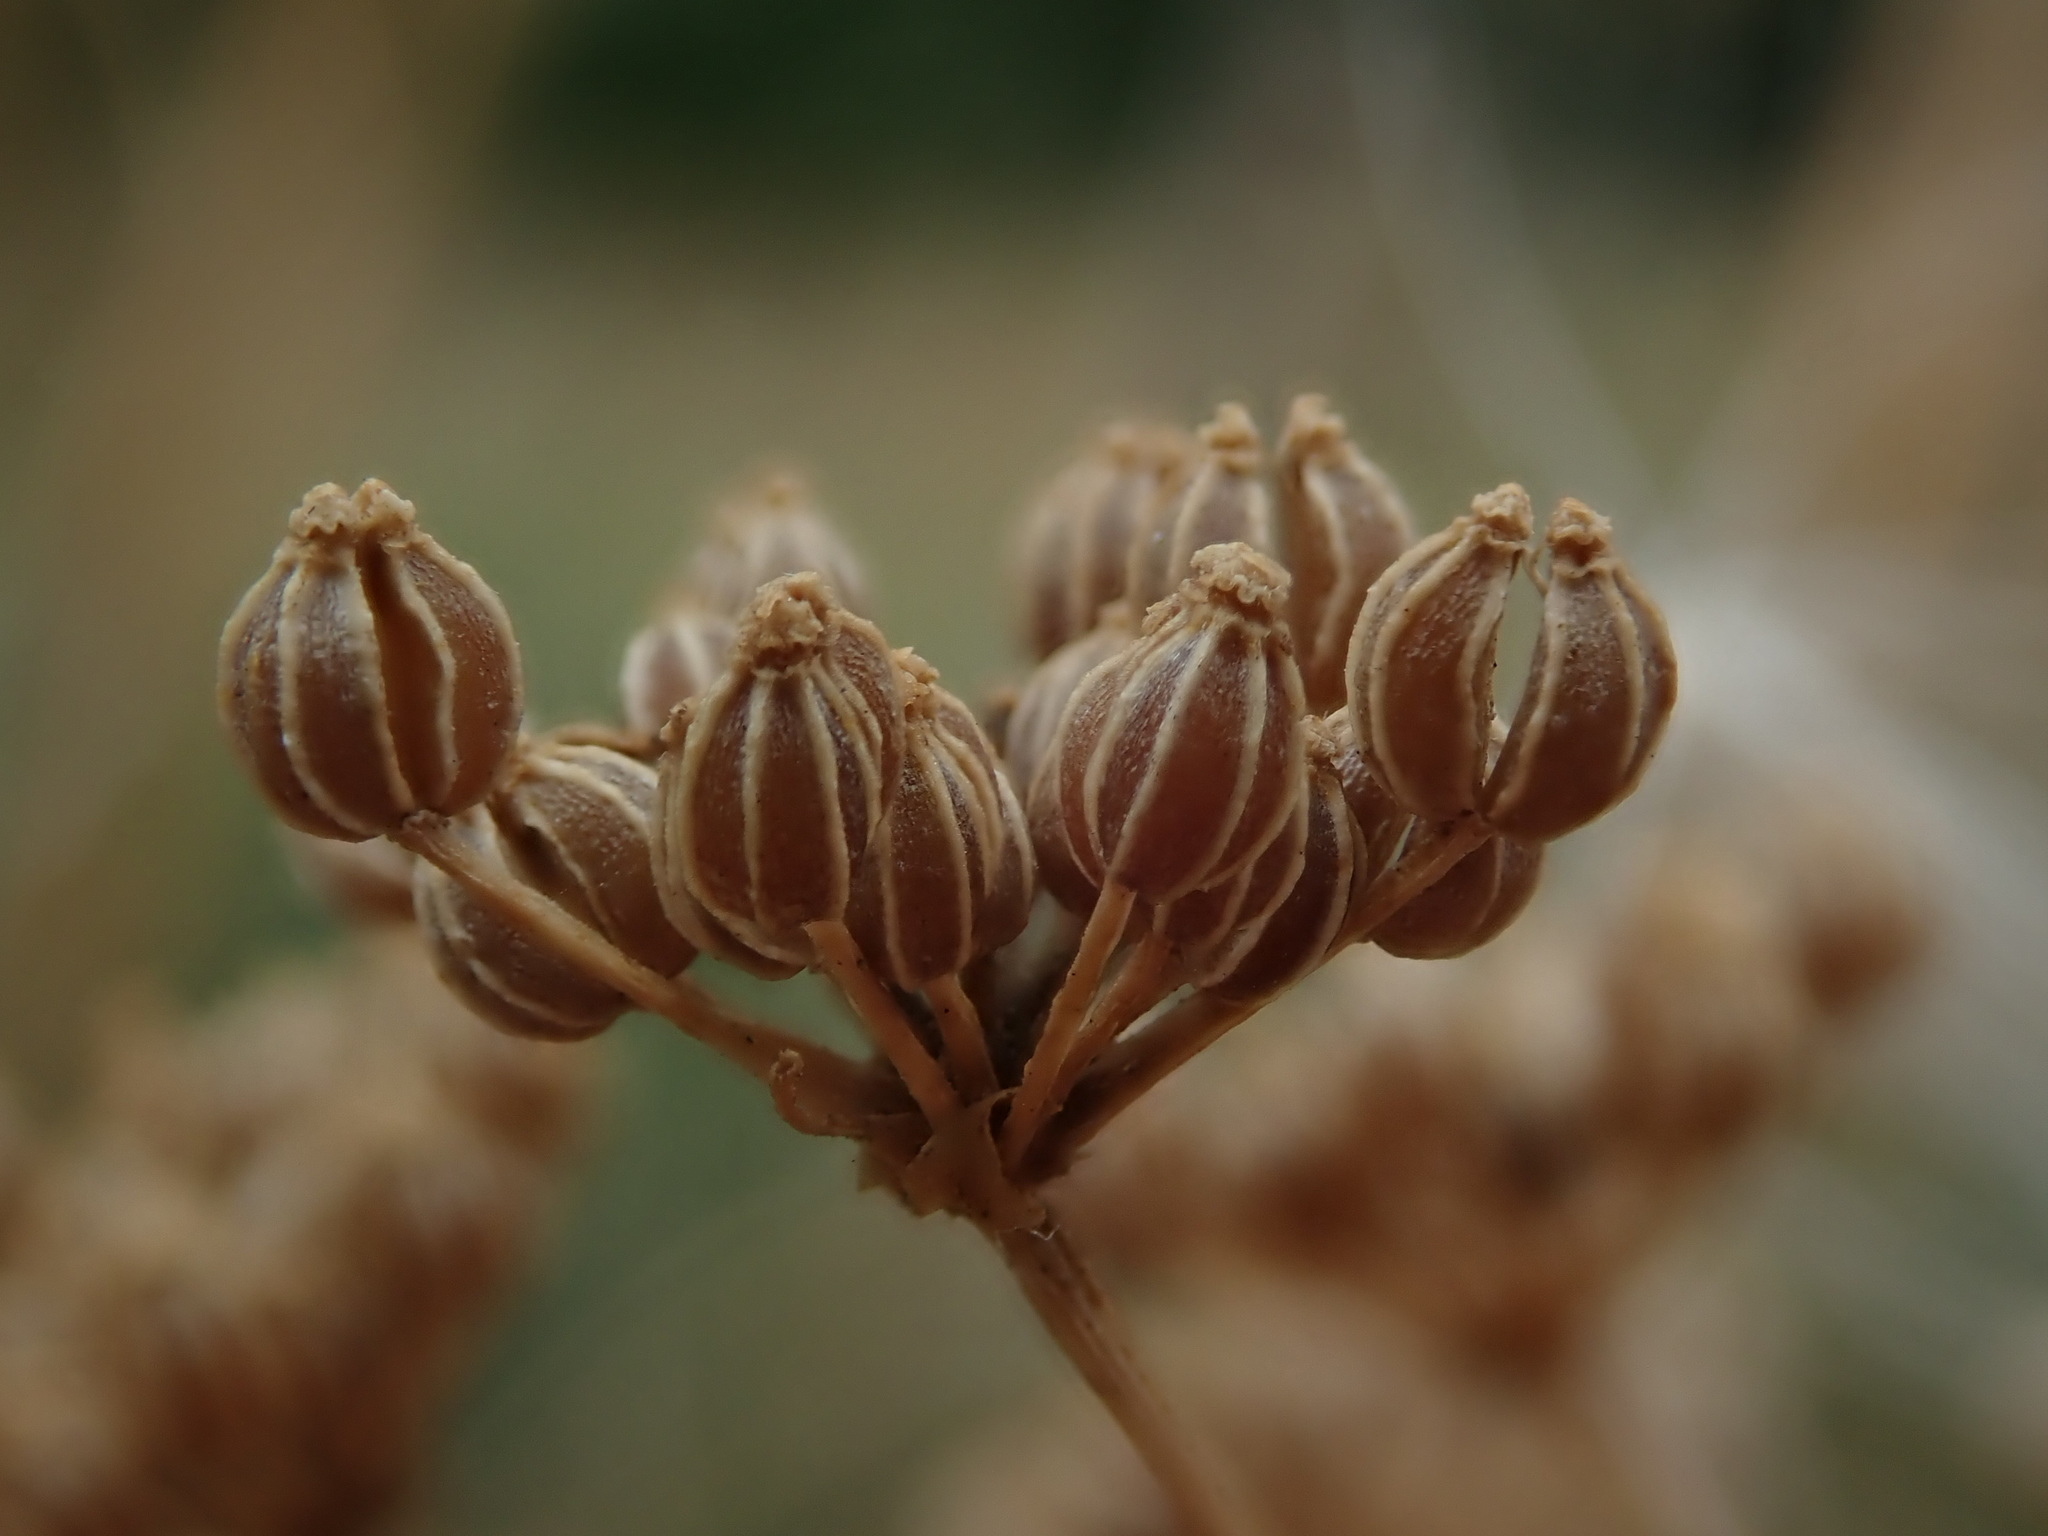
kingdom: Plantae
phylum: Tracheophyta
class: Magnoliopsida
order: Apiales
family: Apiaceae
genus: Conium
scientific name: Conium maculatum
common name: Hemlock
